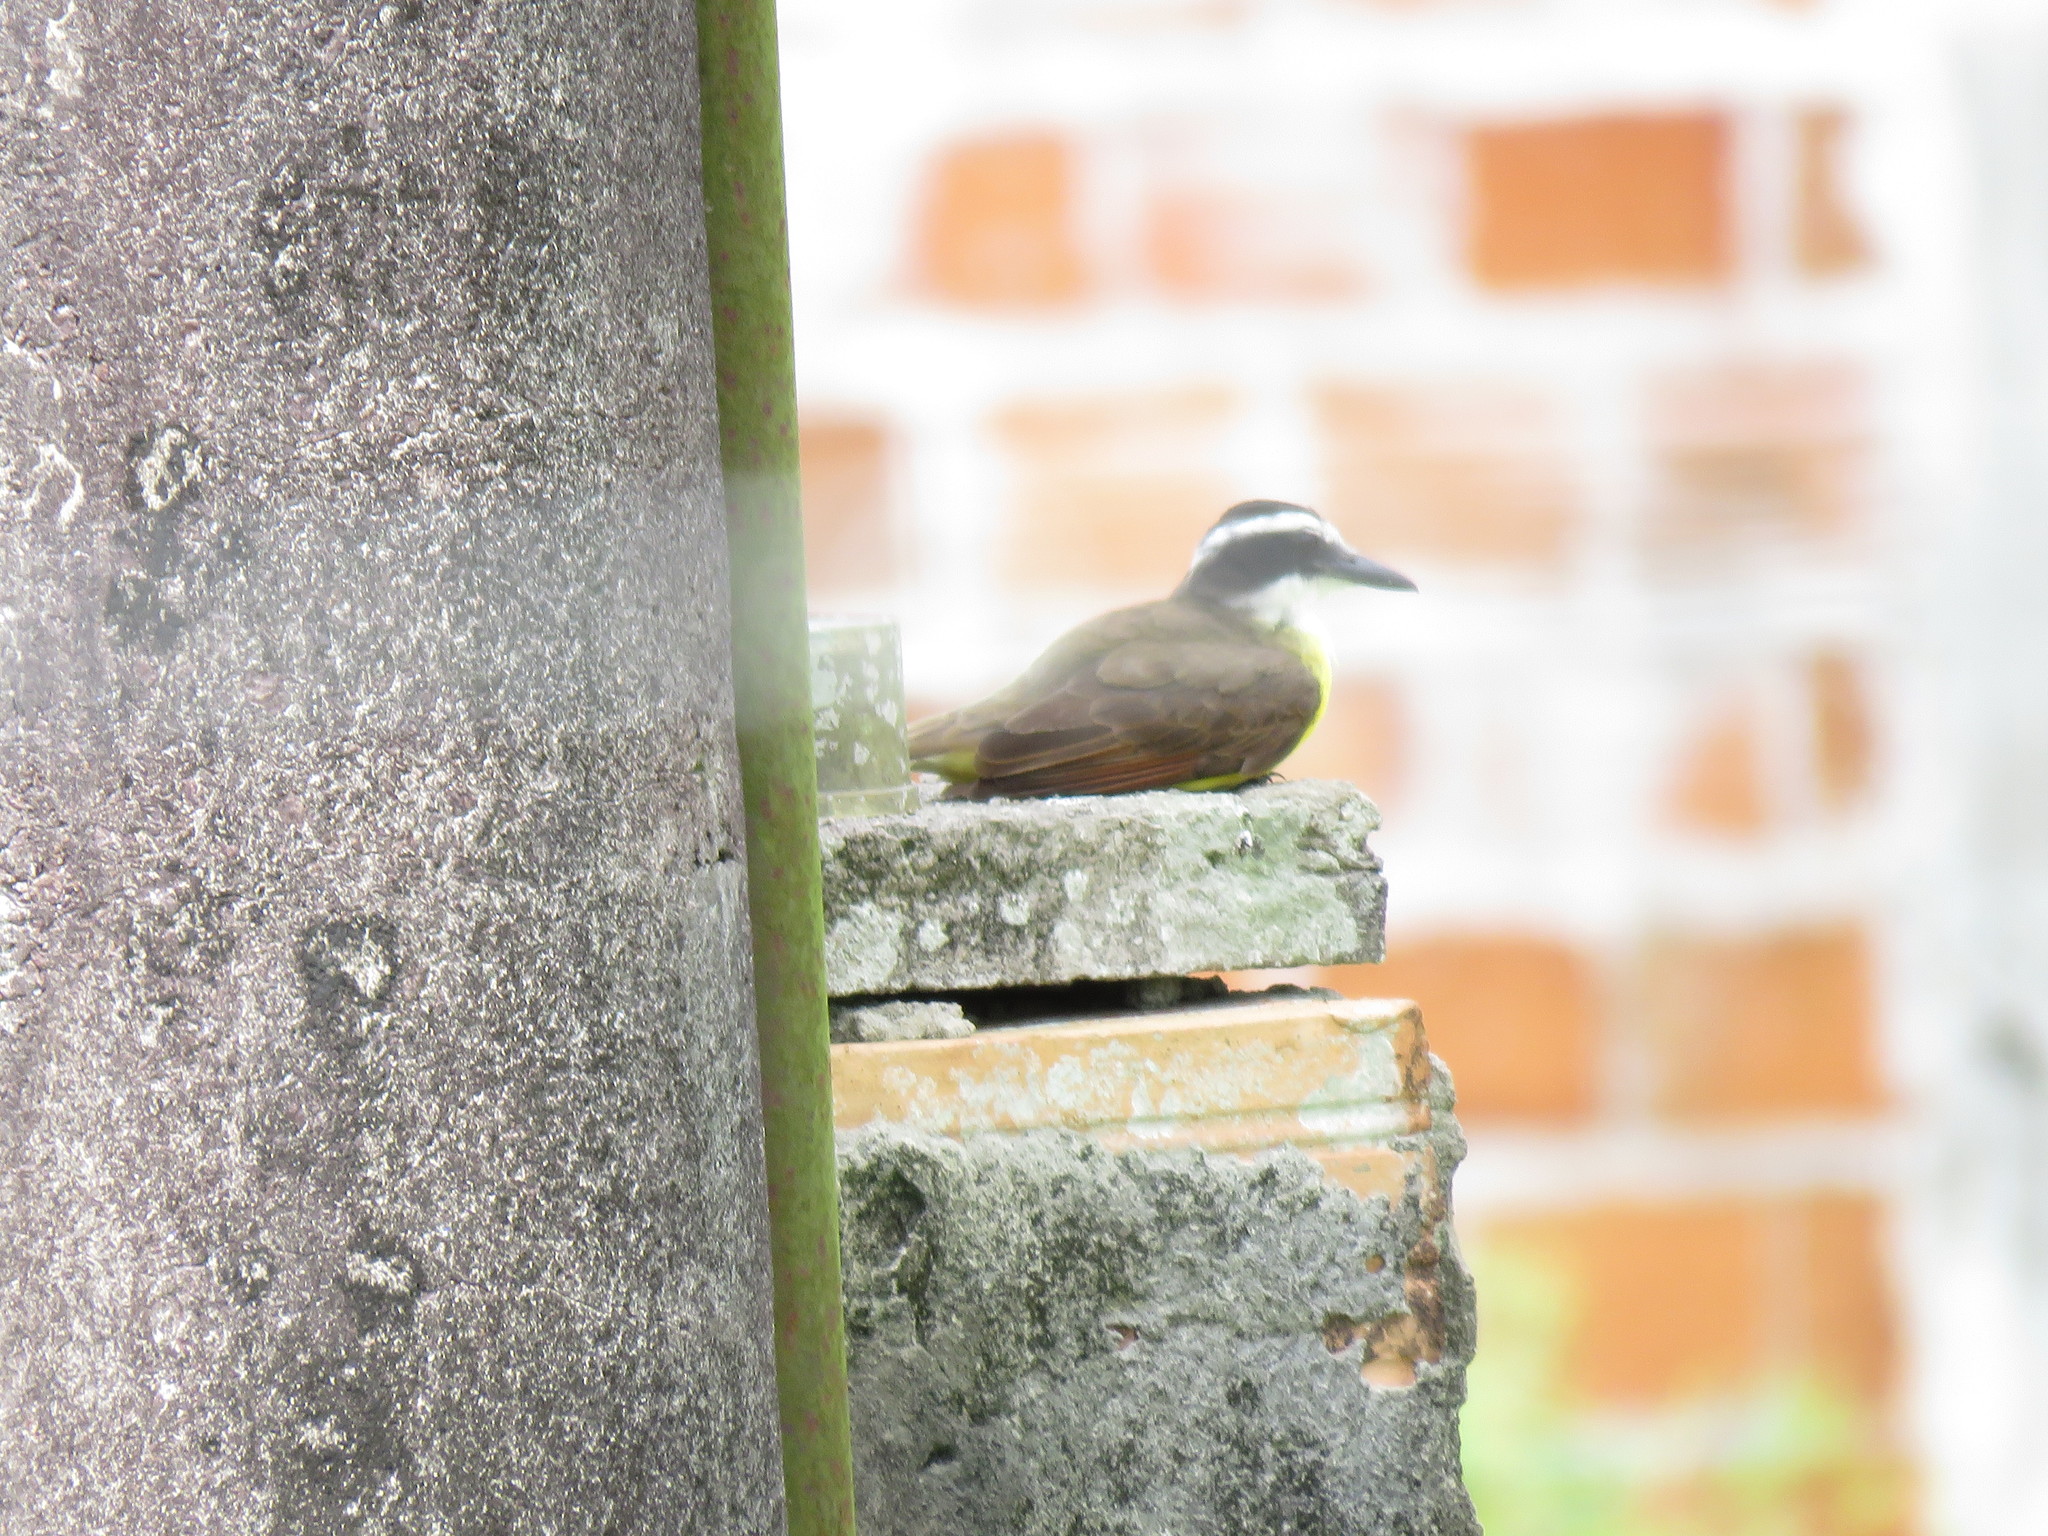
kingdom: Animalia
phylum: Chordata
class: Aves
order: Passeriformes
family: Tyrannidae
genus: Pitangus
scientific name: Pitangus sulphuratus
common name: Great kiskadee
